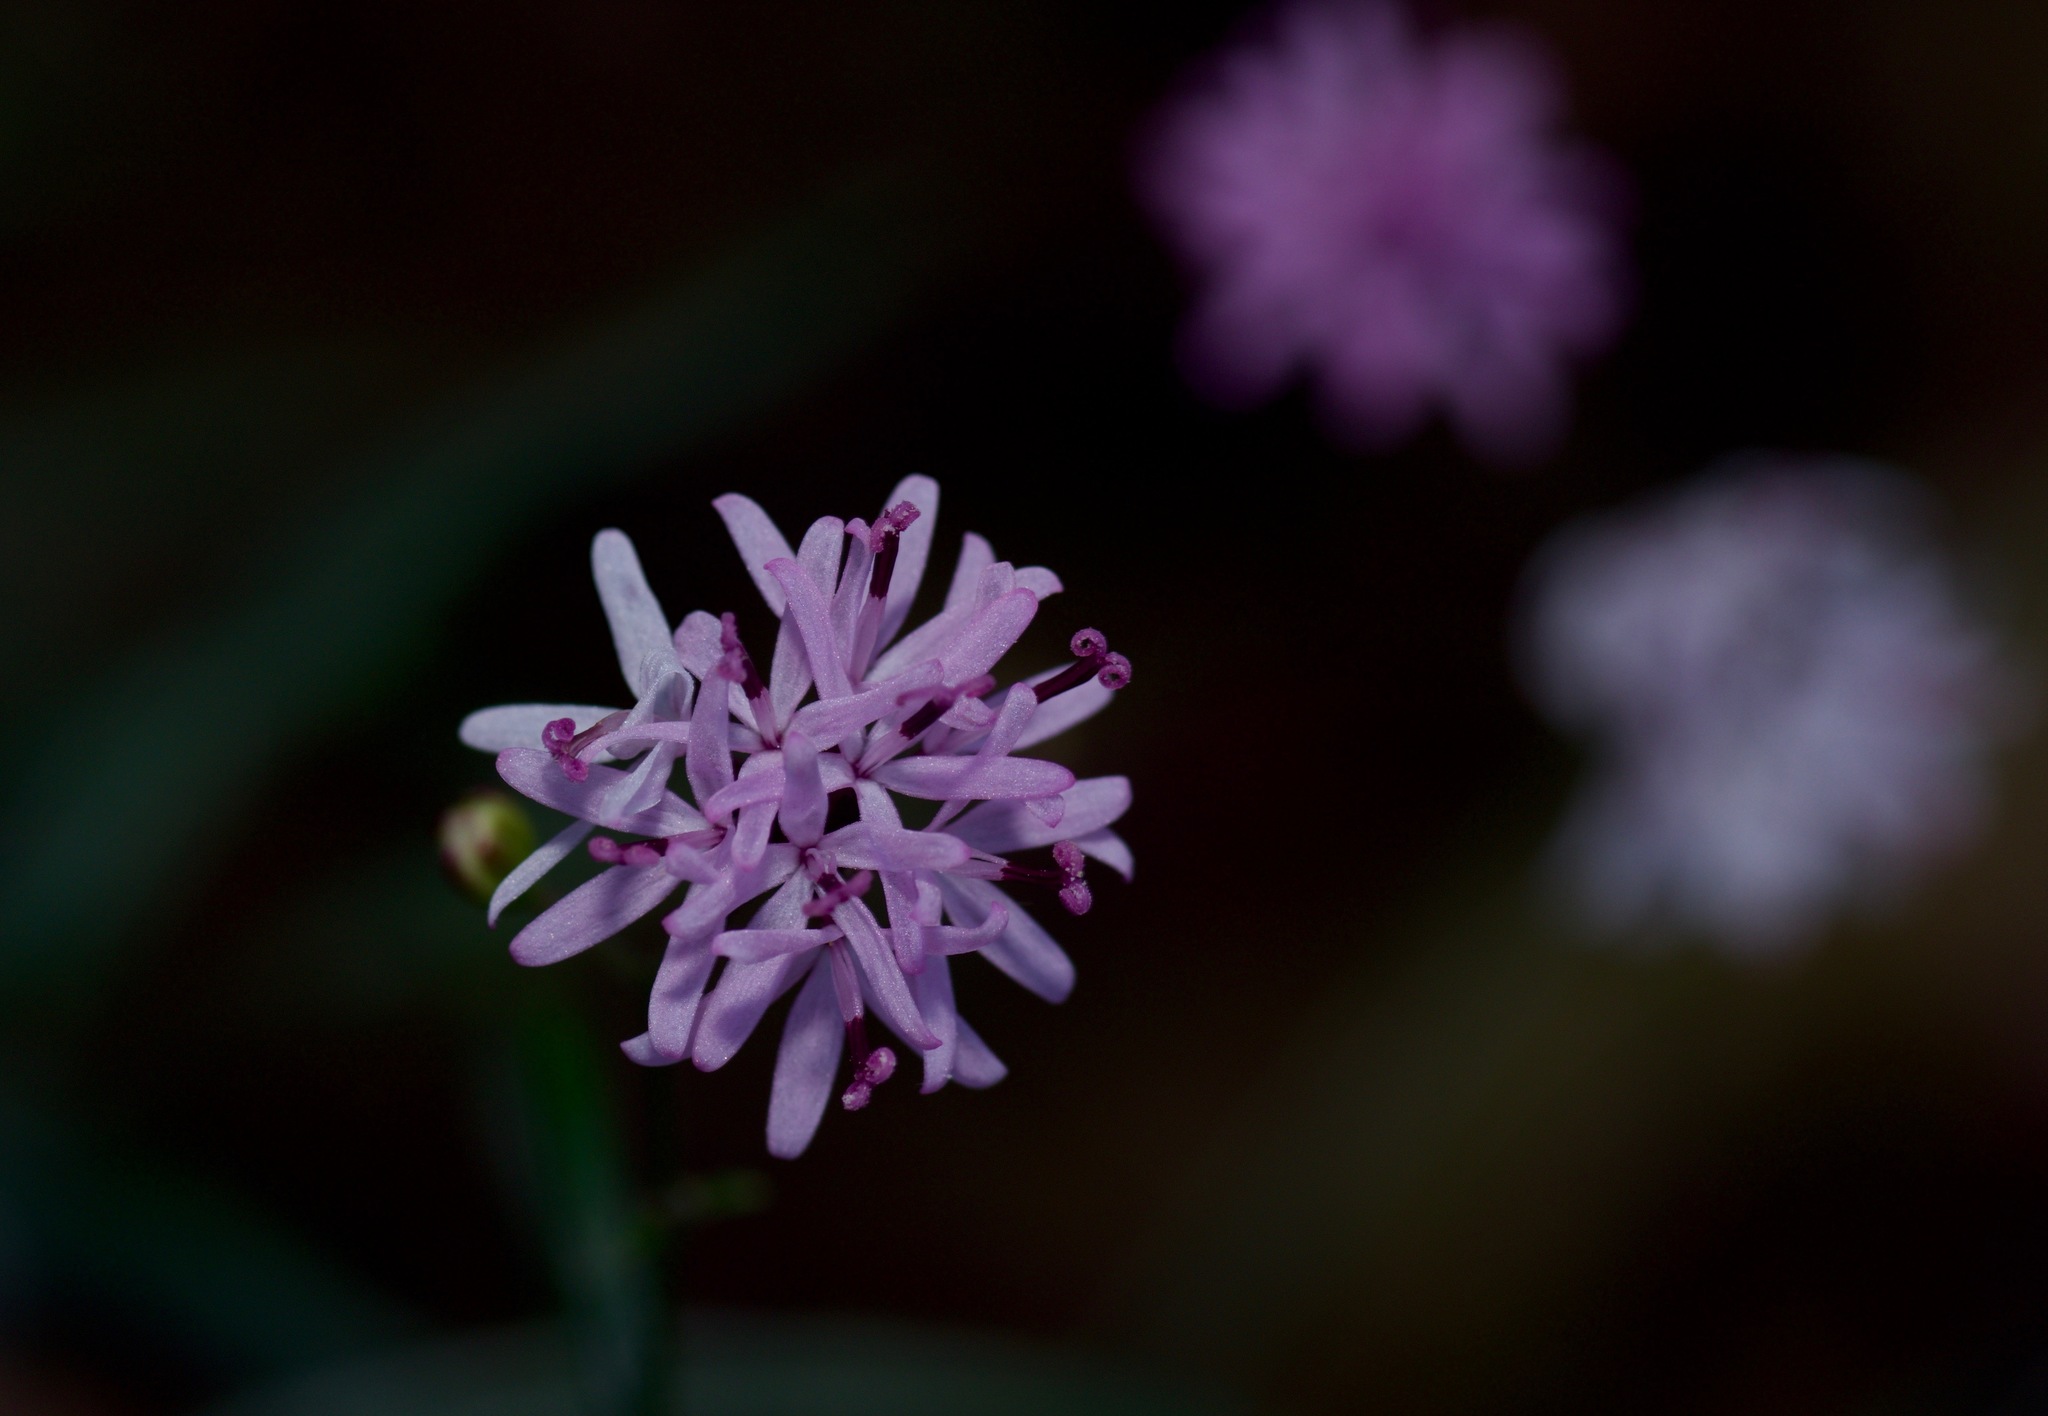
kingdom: Plantae
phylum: Tracheophyta
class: Magnoliopsida
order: Asterales
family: Asteraceae
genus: Palafoxia
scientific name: Palafoxia callosa
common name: Small palafox
